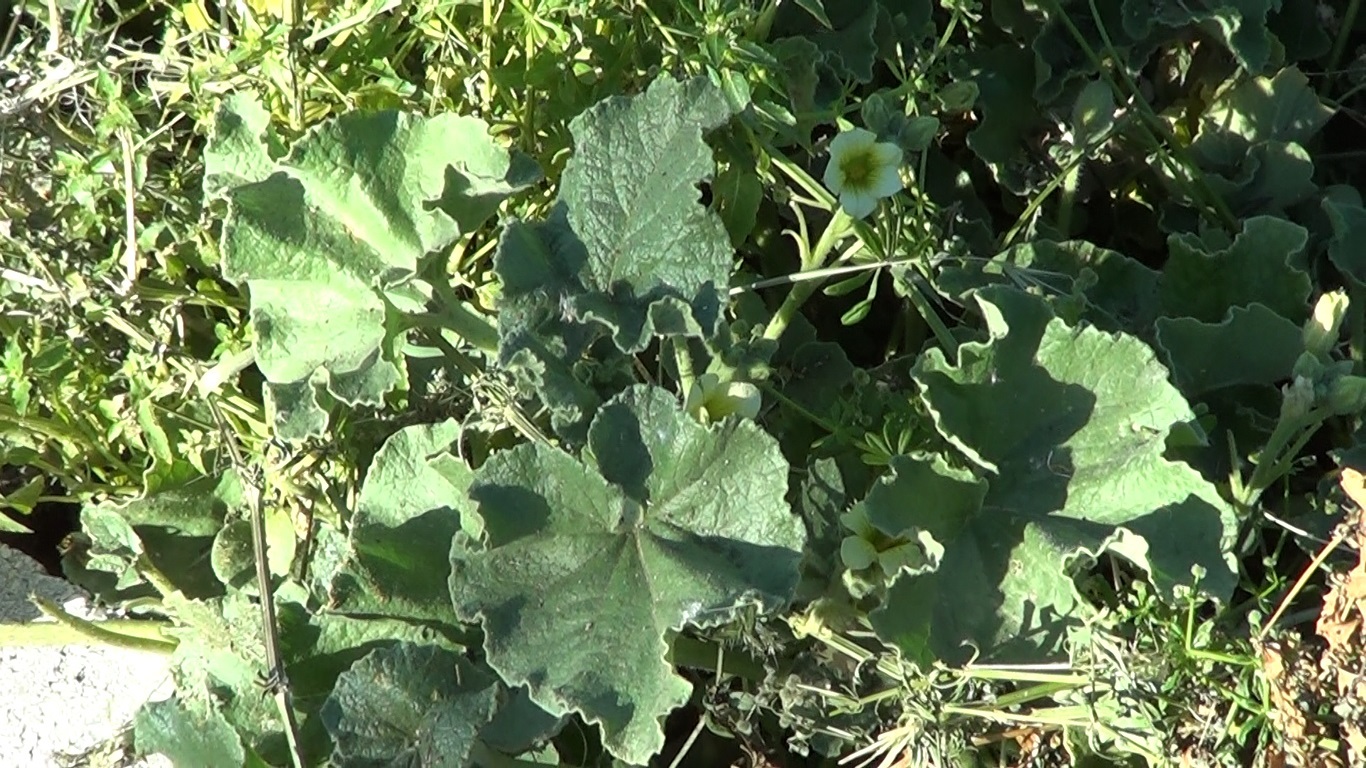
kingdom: Plantae
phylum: Tracheophyta
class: Magnoliopsida
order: Cucurbitales
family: Cucurbitaceae
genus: Ecballium
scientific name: Ecballium elaterium
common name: Squirting cucumber
